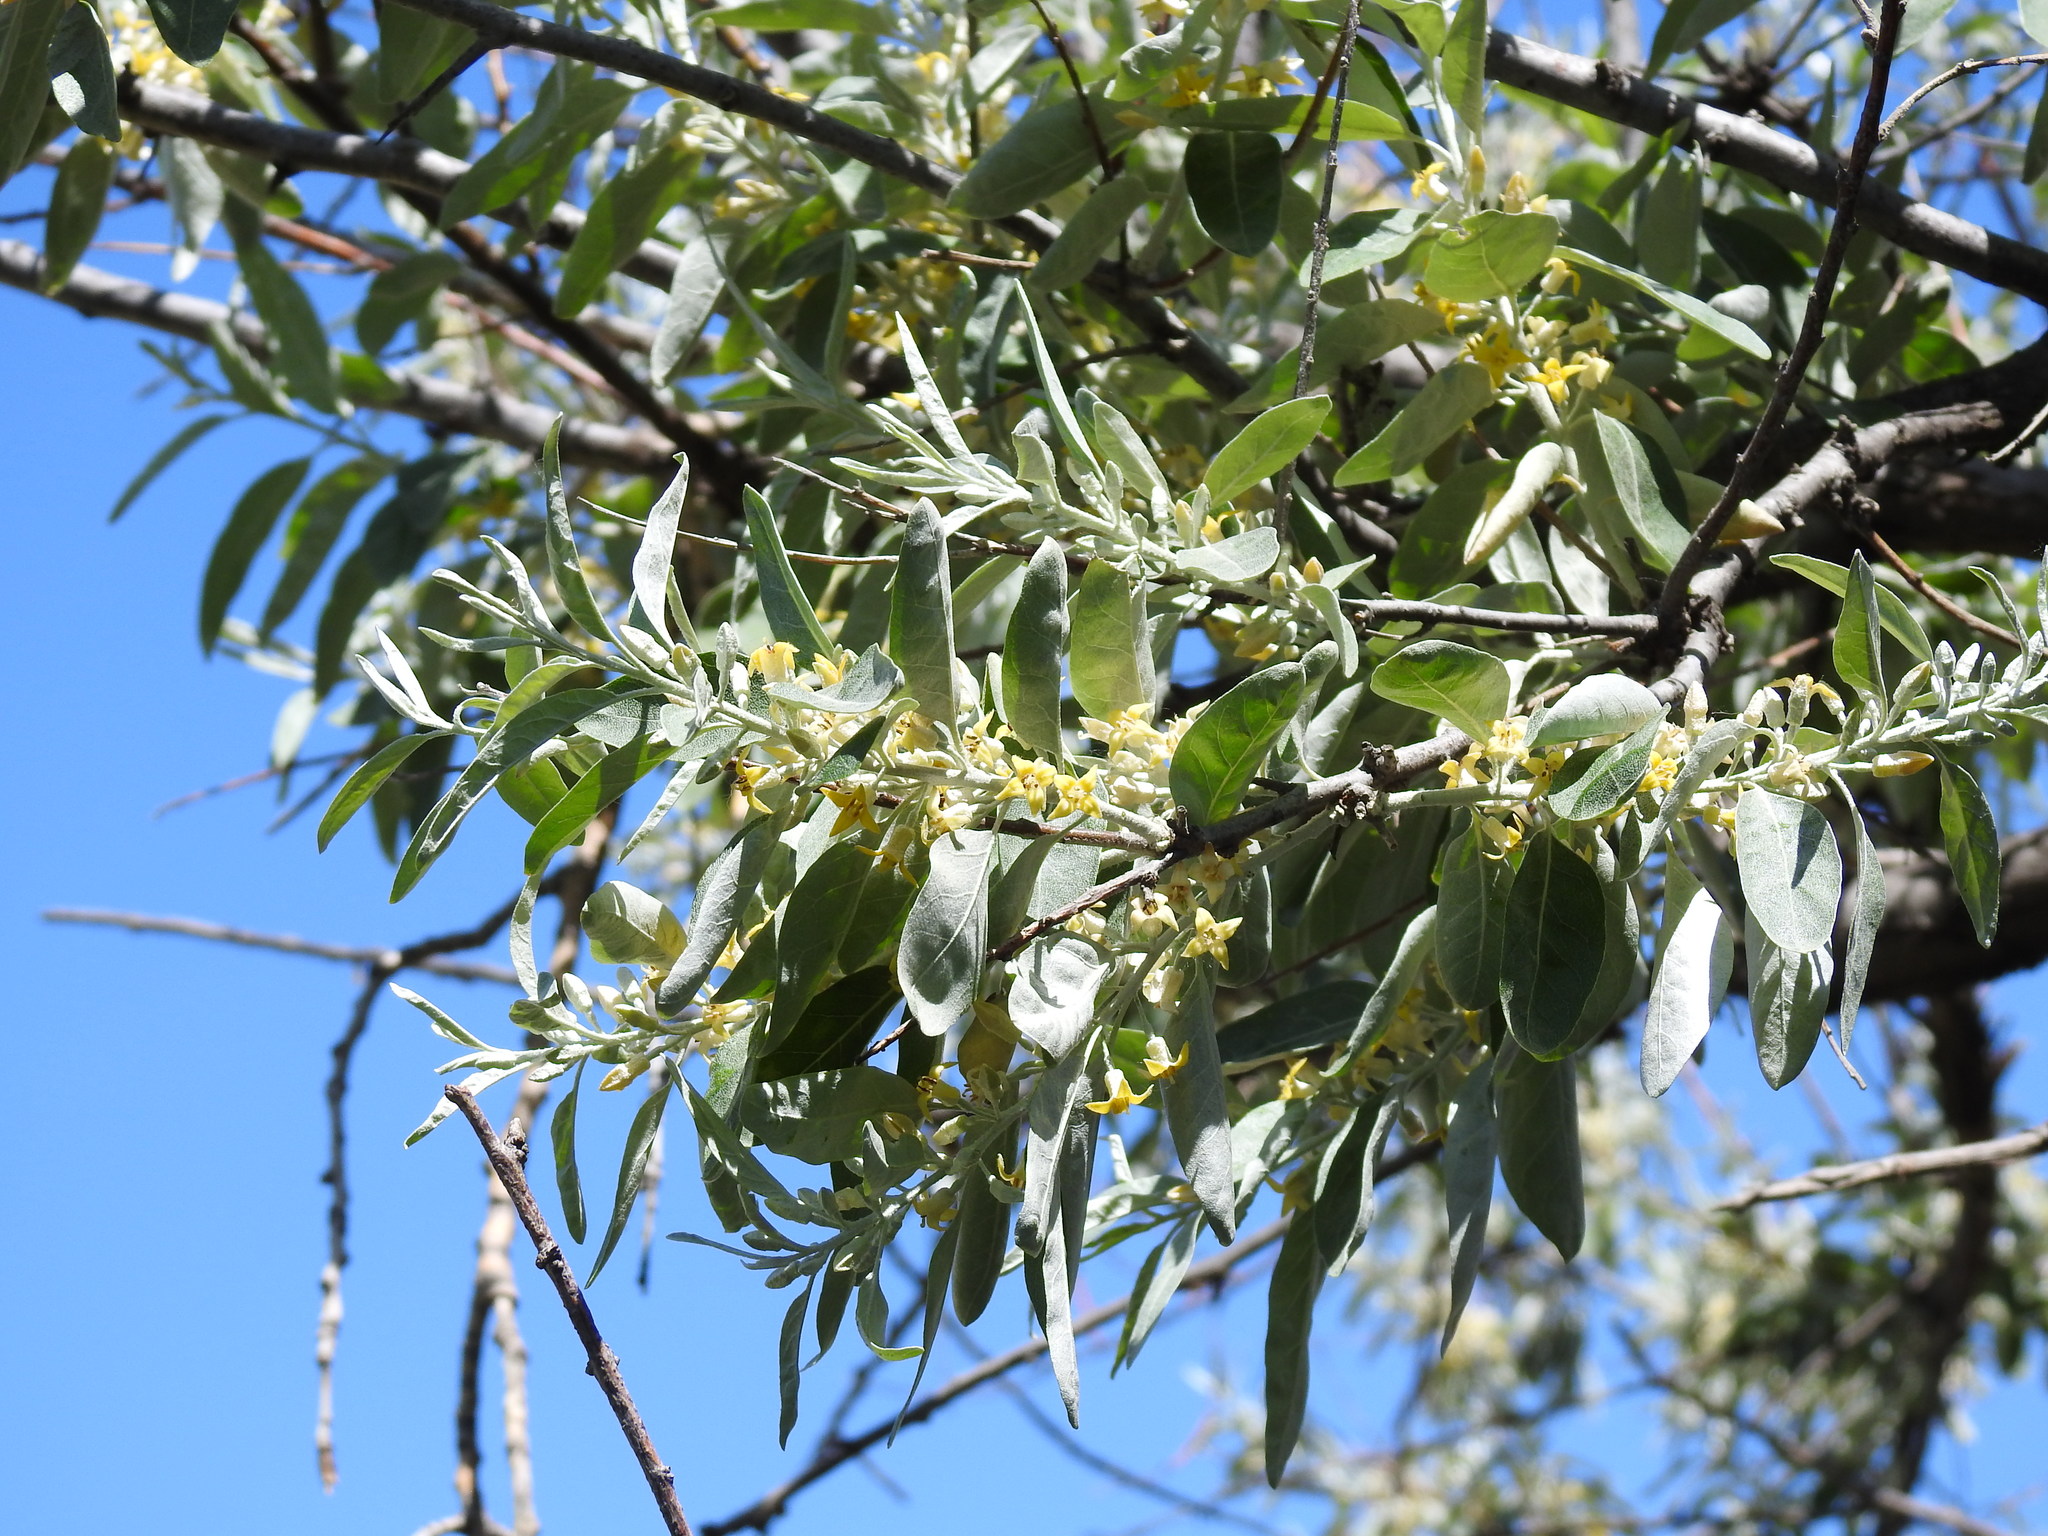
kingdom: Plantae
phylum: Tracheophyta
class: Magnoliopsida
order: Rosales
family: Elaeagnaceae
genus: Elaeagnus
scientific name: Elaeagnus angustifolia
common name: Russian olive
